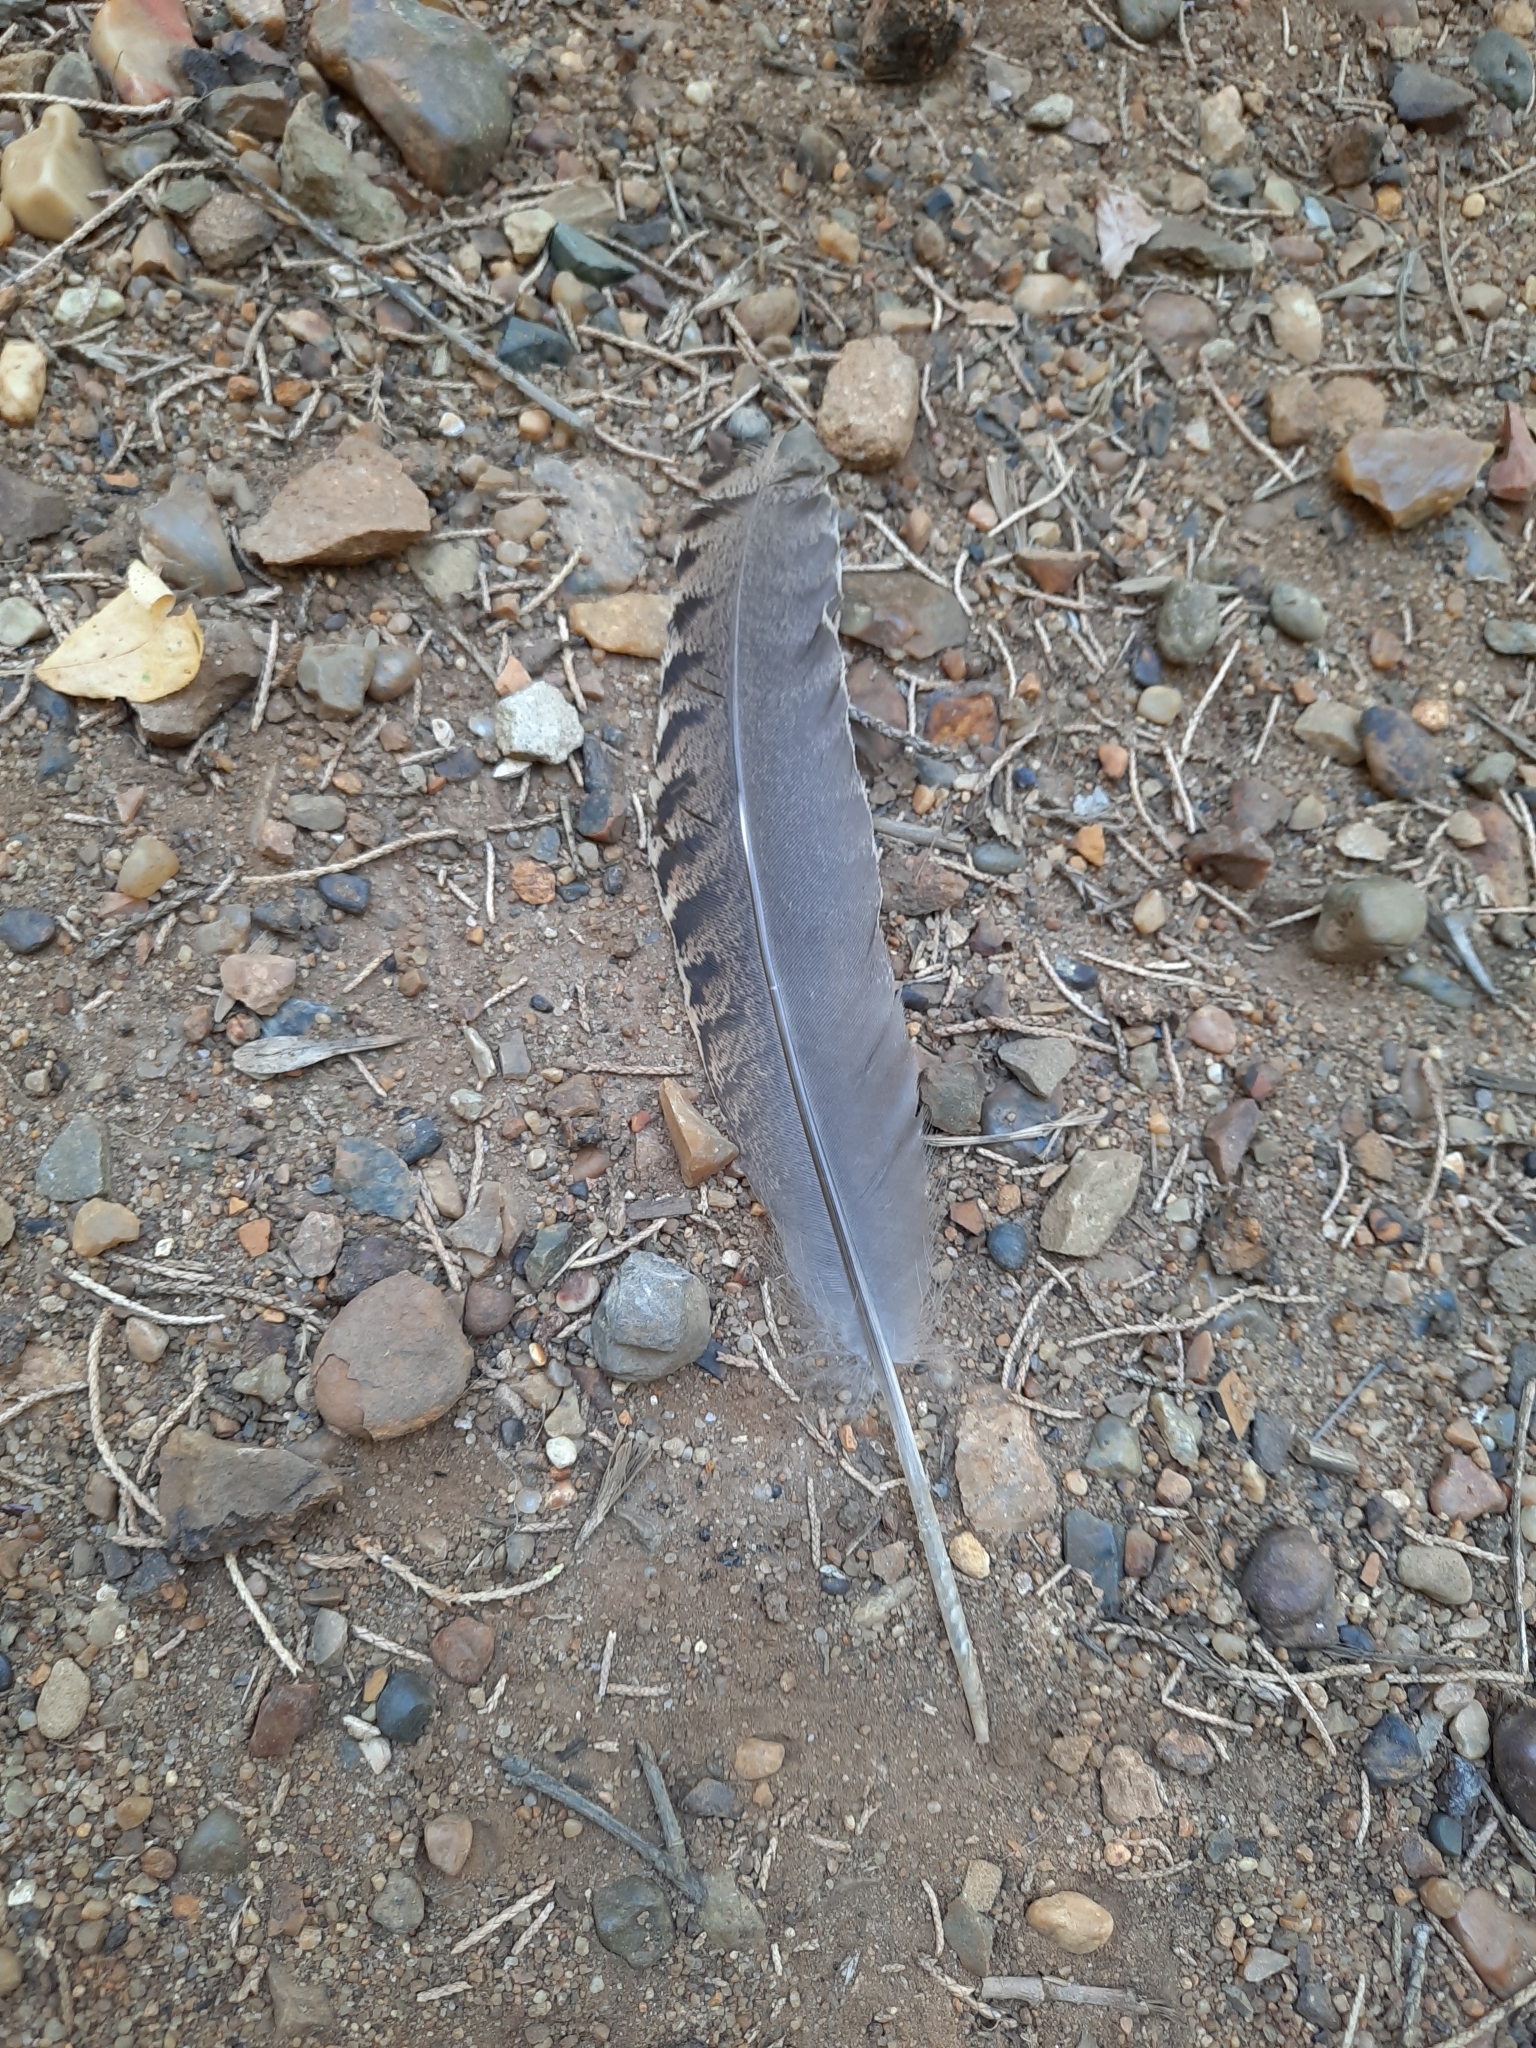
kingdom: Animalia
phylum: Chordata
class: Aves
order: Galliformes
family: Phasianidae
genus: Meleagris
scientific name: Meleagris gallopavo
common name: Wild turkey
